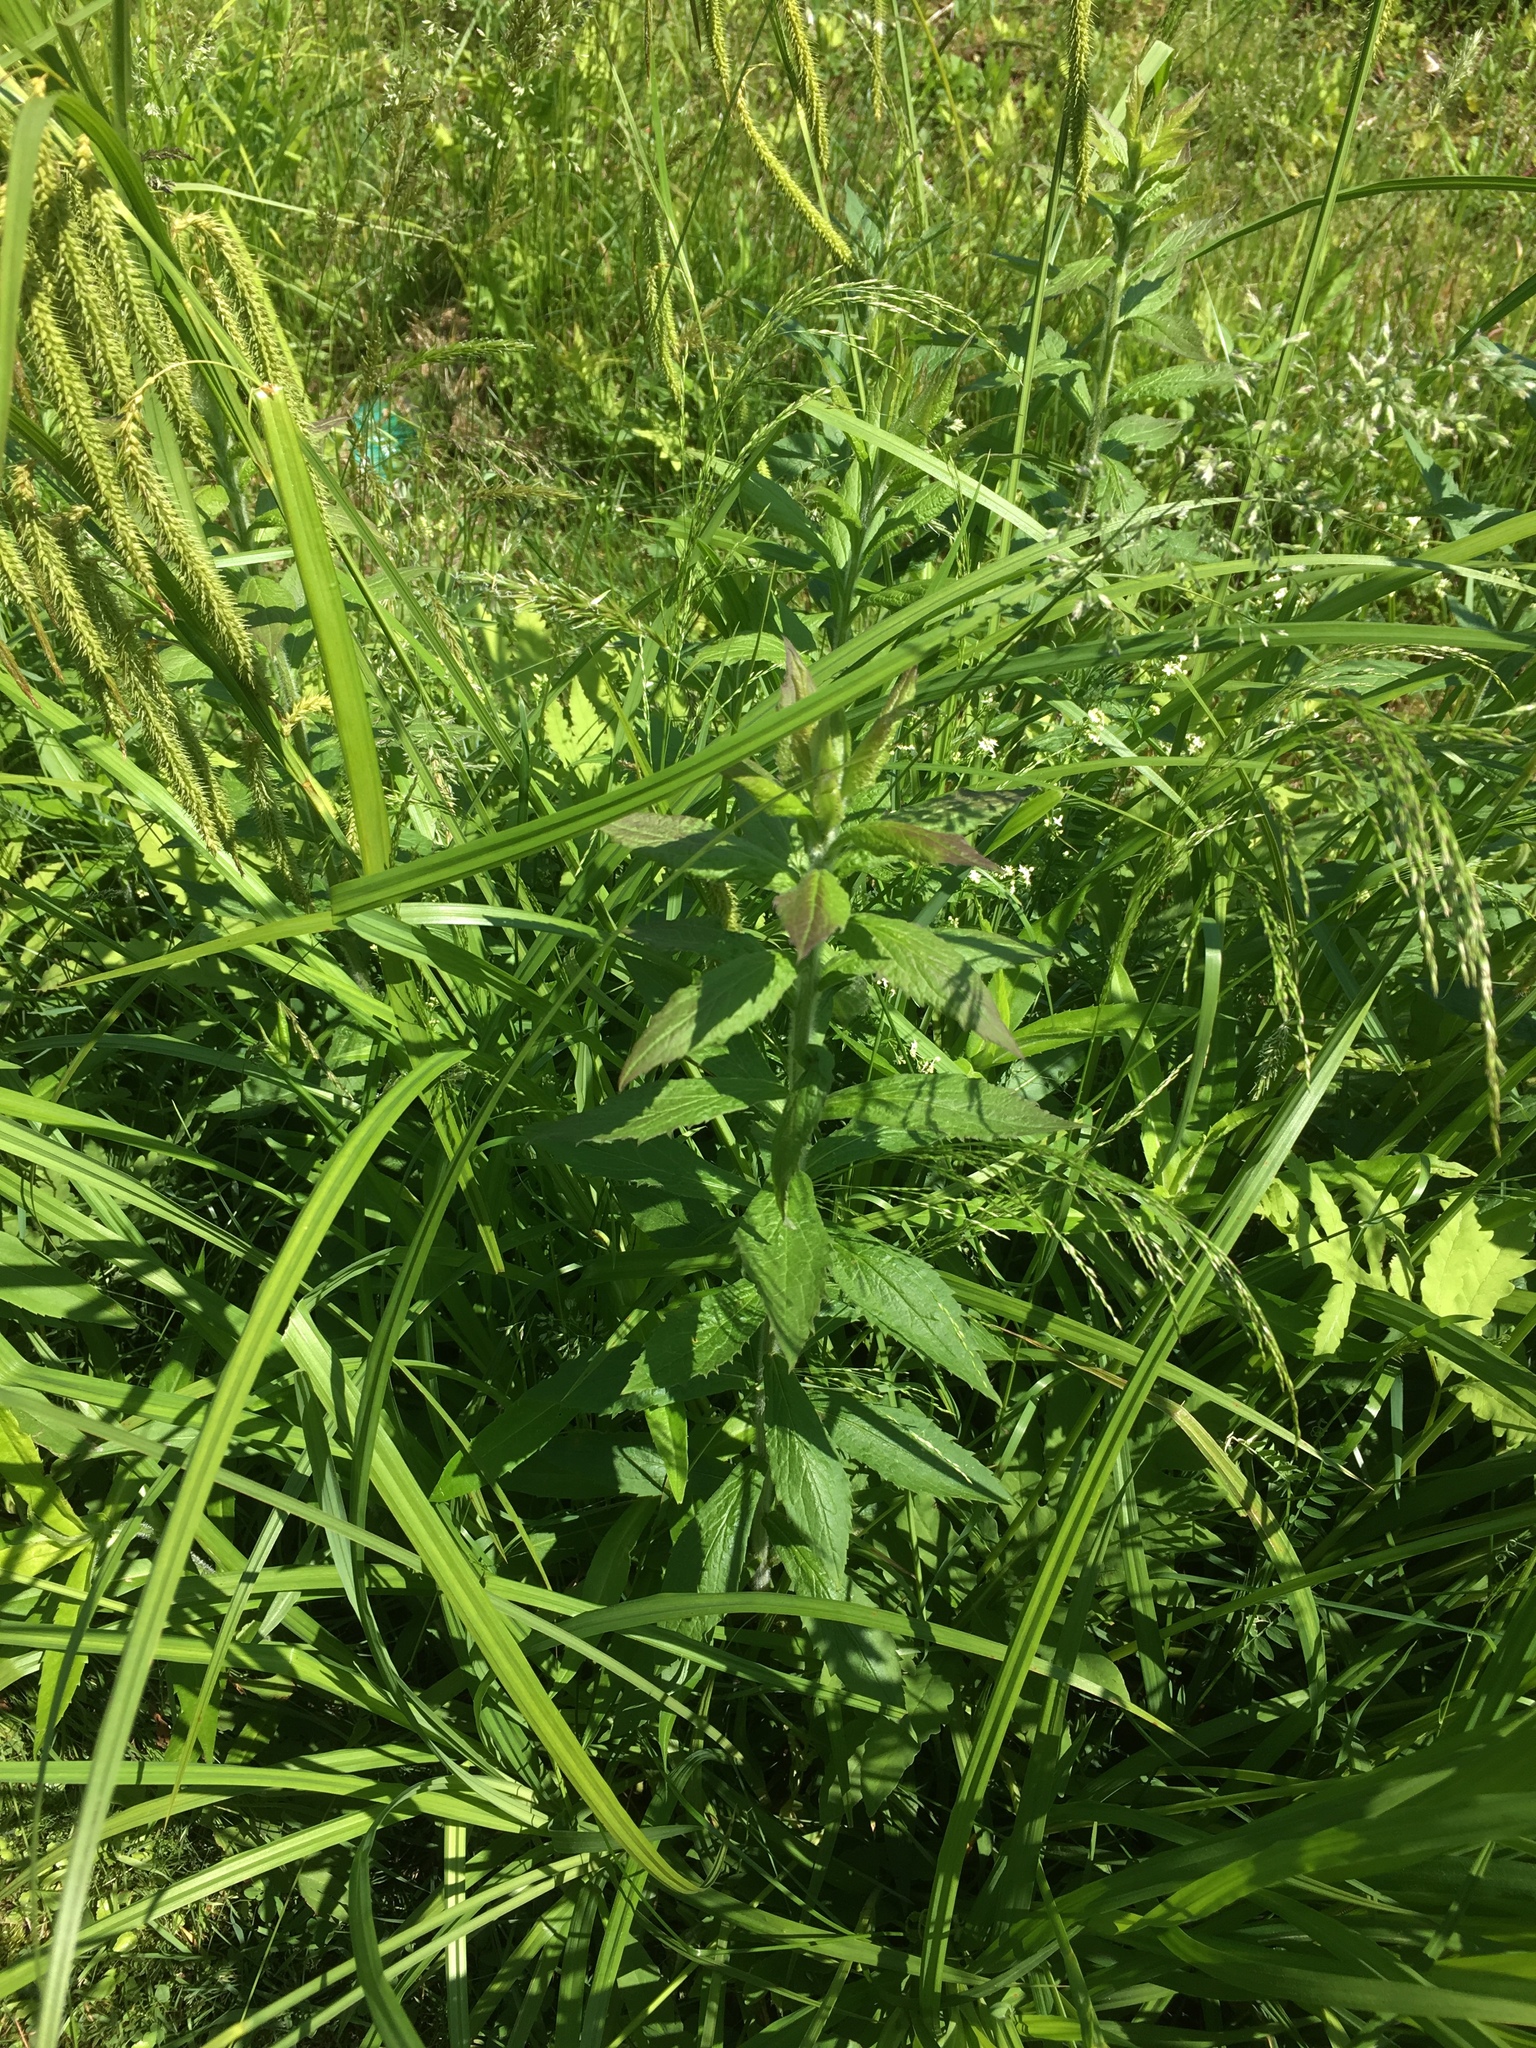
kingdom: Plantae
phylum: Tracheophyta
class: Magnoliopsida
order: Asterales
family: Asteraceae
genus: Solidago
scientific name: Solidago rugosa
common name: Rough-stemmed goldenrod
